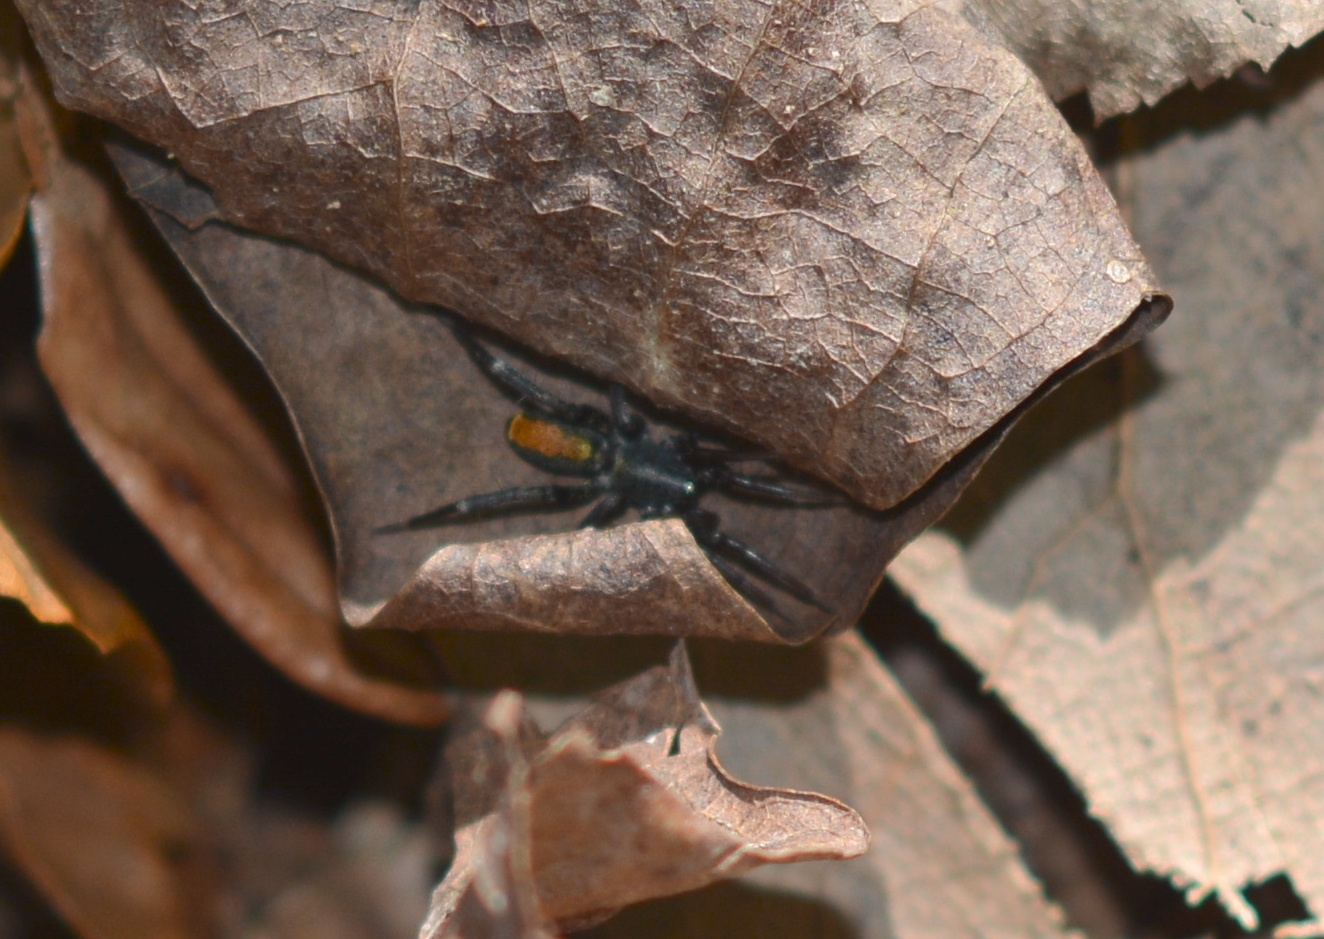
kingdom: Animalia
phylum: Arthropoda
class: Arachnida
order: Araneae
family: Corinnidae
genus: Castianeira
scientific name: Castianeira crocata
